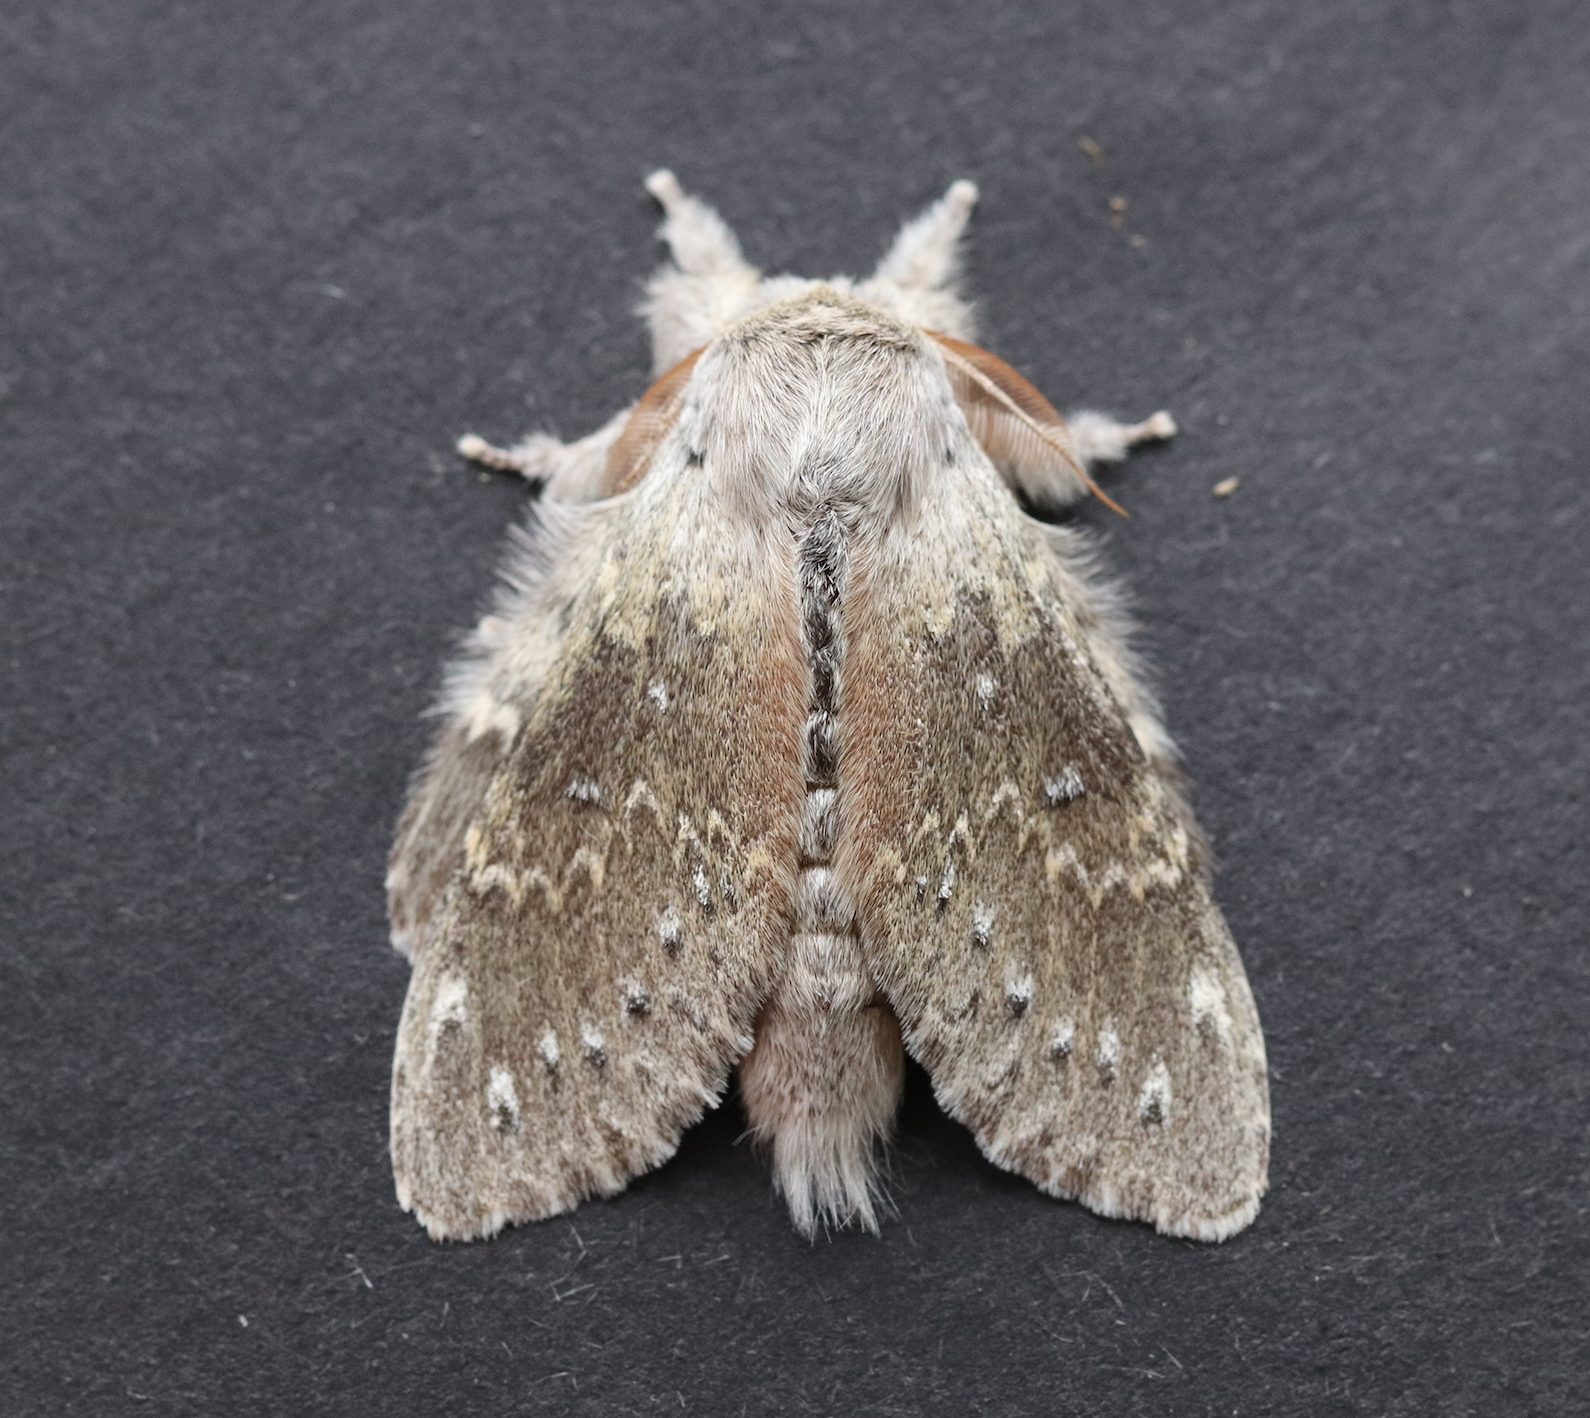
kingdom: Animalia
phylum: Arthropoda
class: Insecta
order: Lepidoptera
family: Notodontidae
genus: Stauropus
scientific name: Stauropus fagi
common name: Lobster moth
